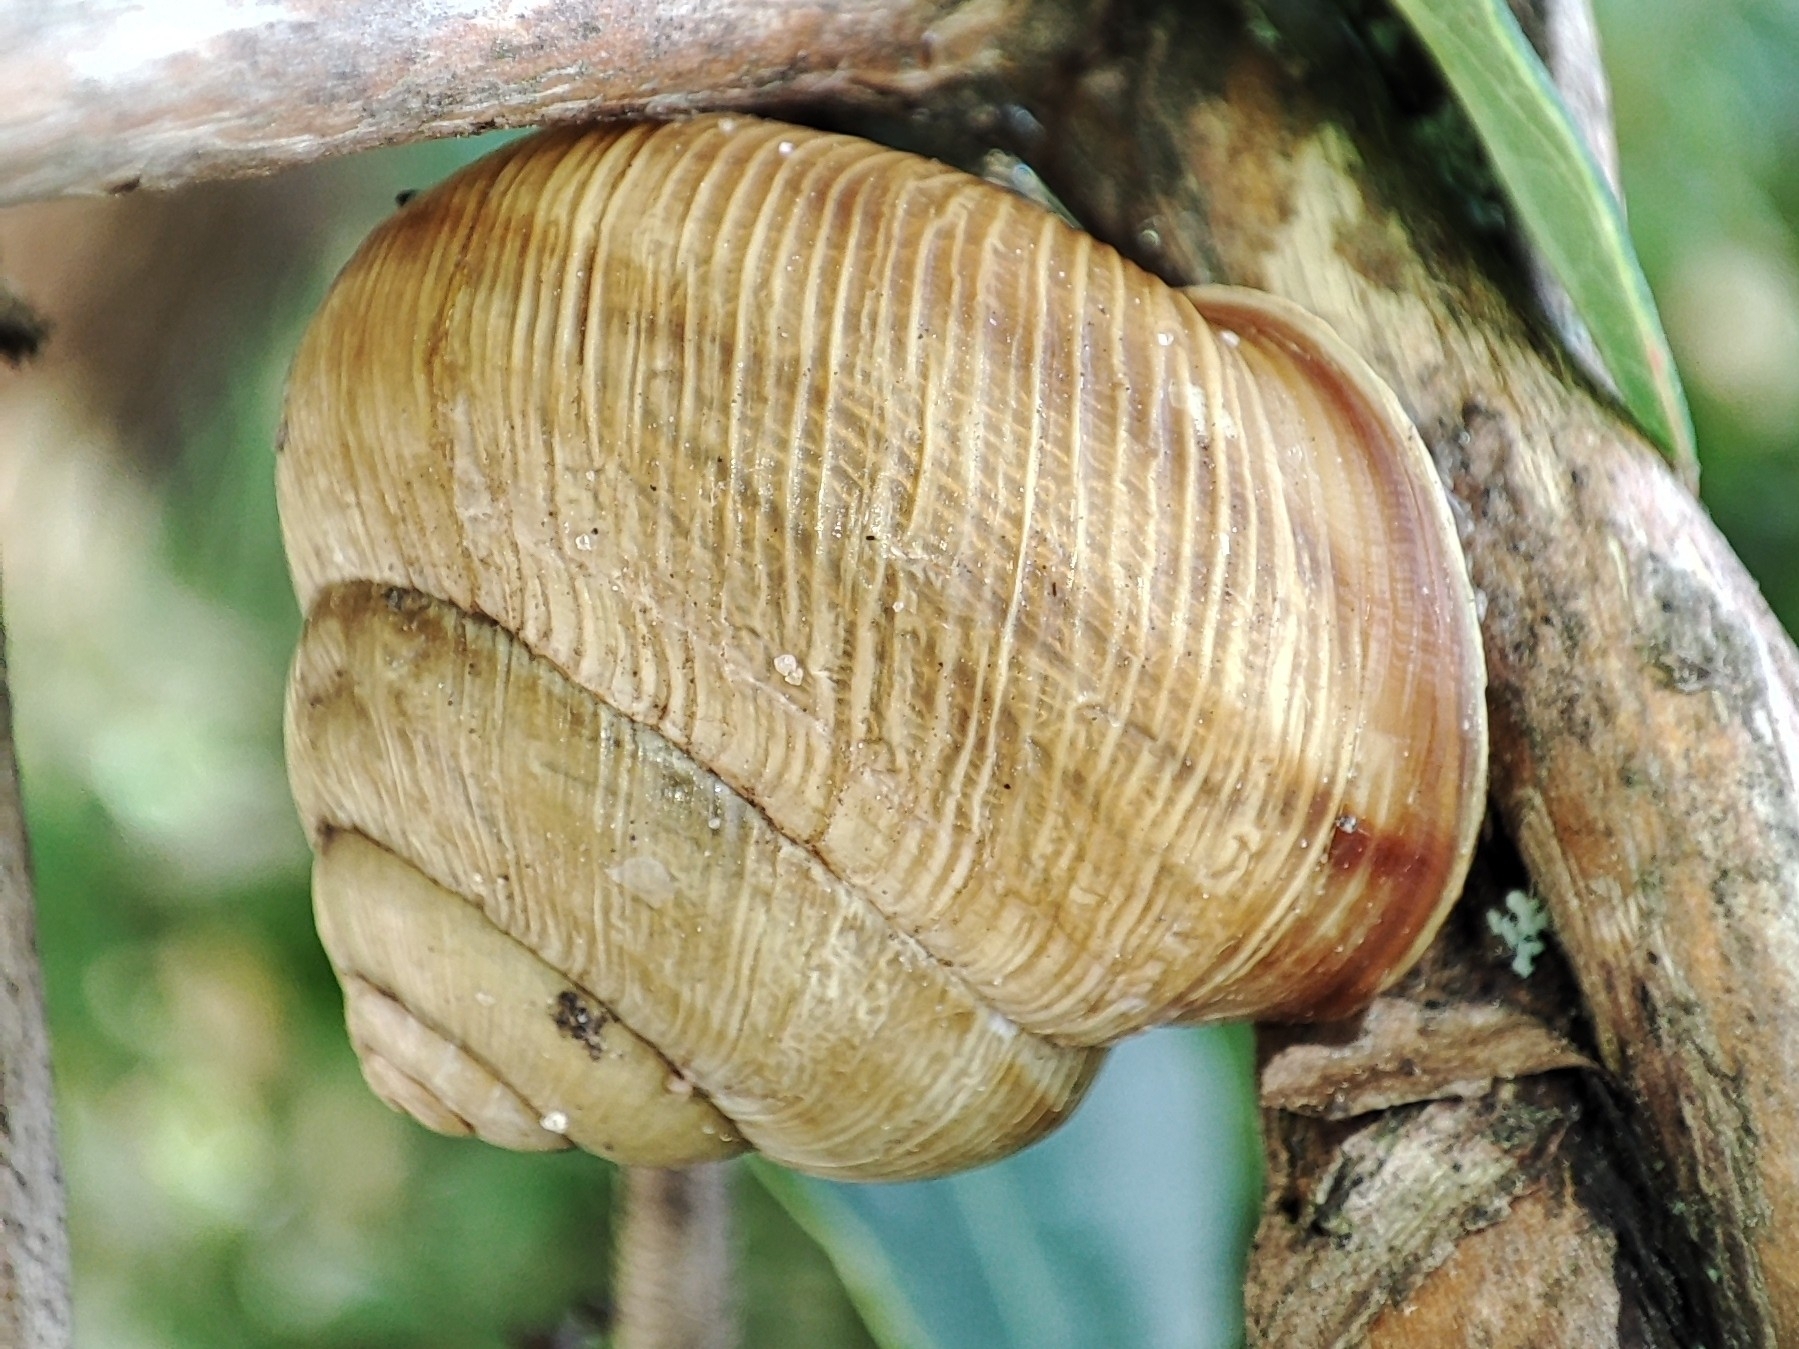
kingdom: Animalia
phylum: Mollusca
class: Gastropoda
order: Stylommatophora
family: Helicidae
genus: Caucasotachea
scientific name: Caucasotachea vindobonensis
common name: European helicid land snail
